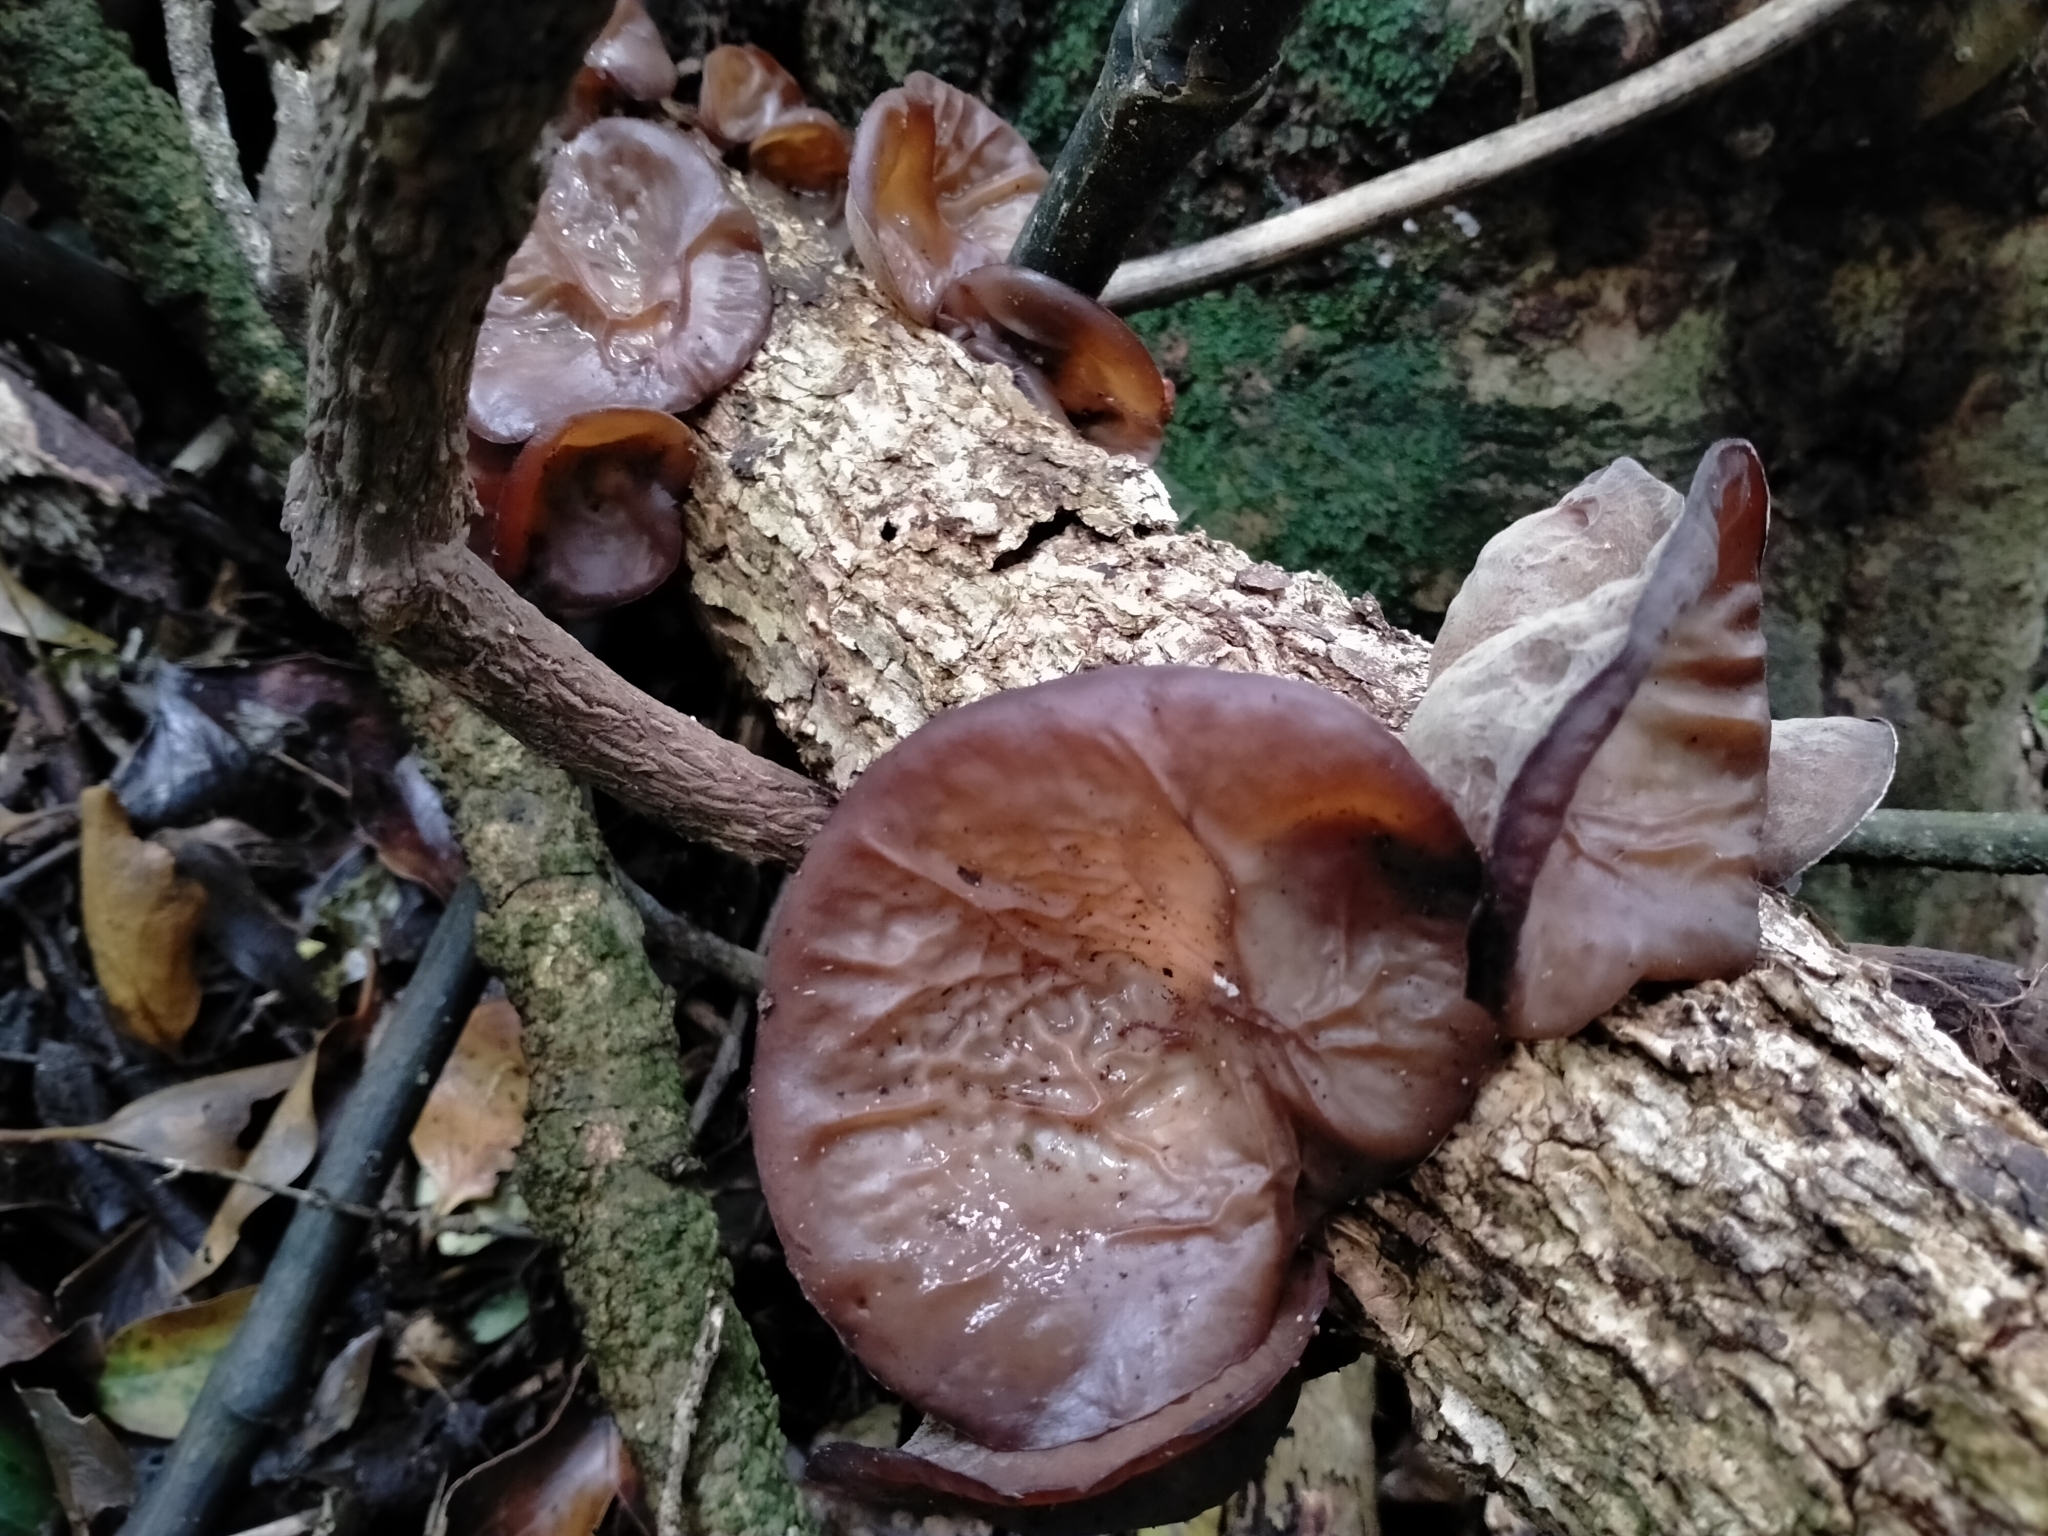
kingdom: Fungi
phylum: Basidiomycota
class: Agaricomycetes
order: Auriculariales
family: Auriculariaceae
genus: Auricularia
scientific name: Auricularia cornea
